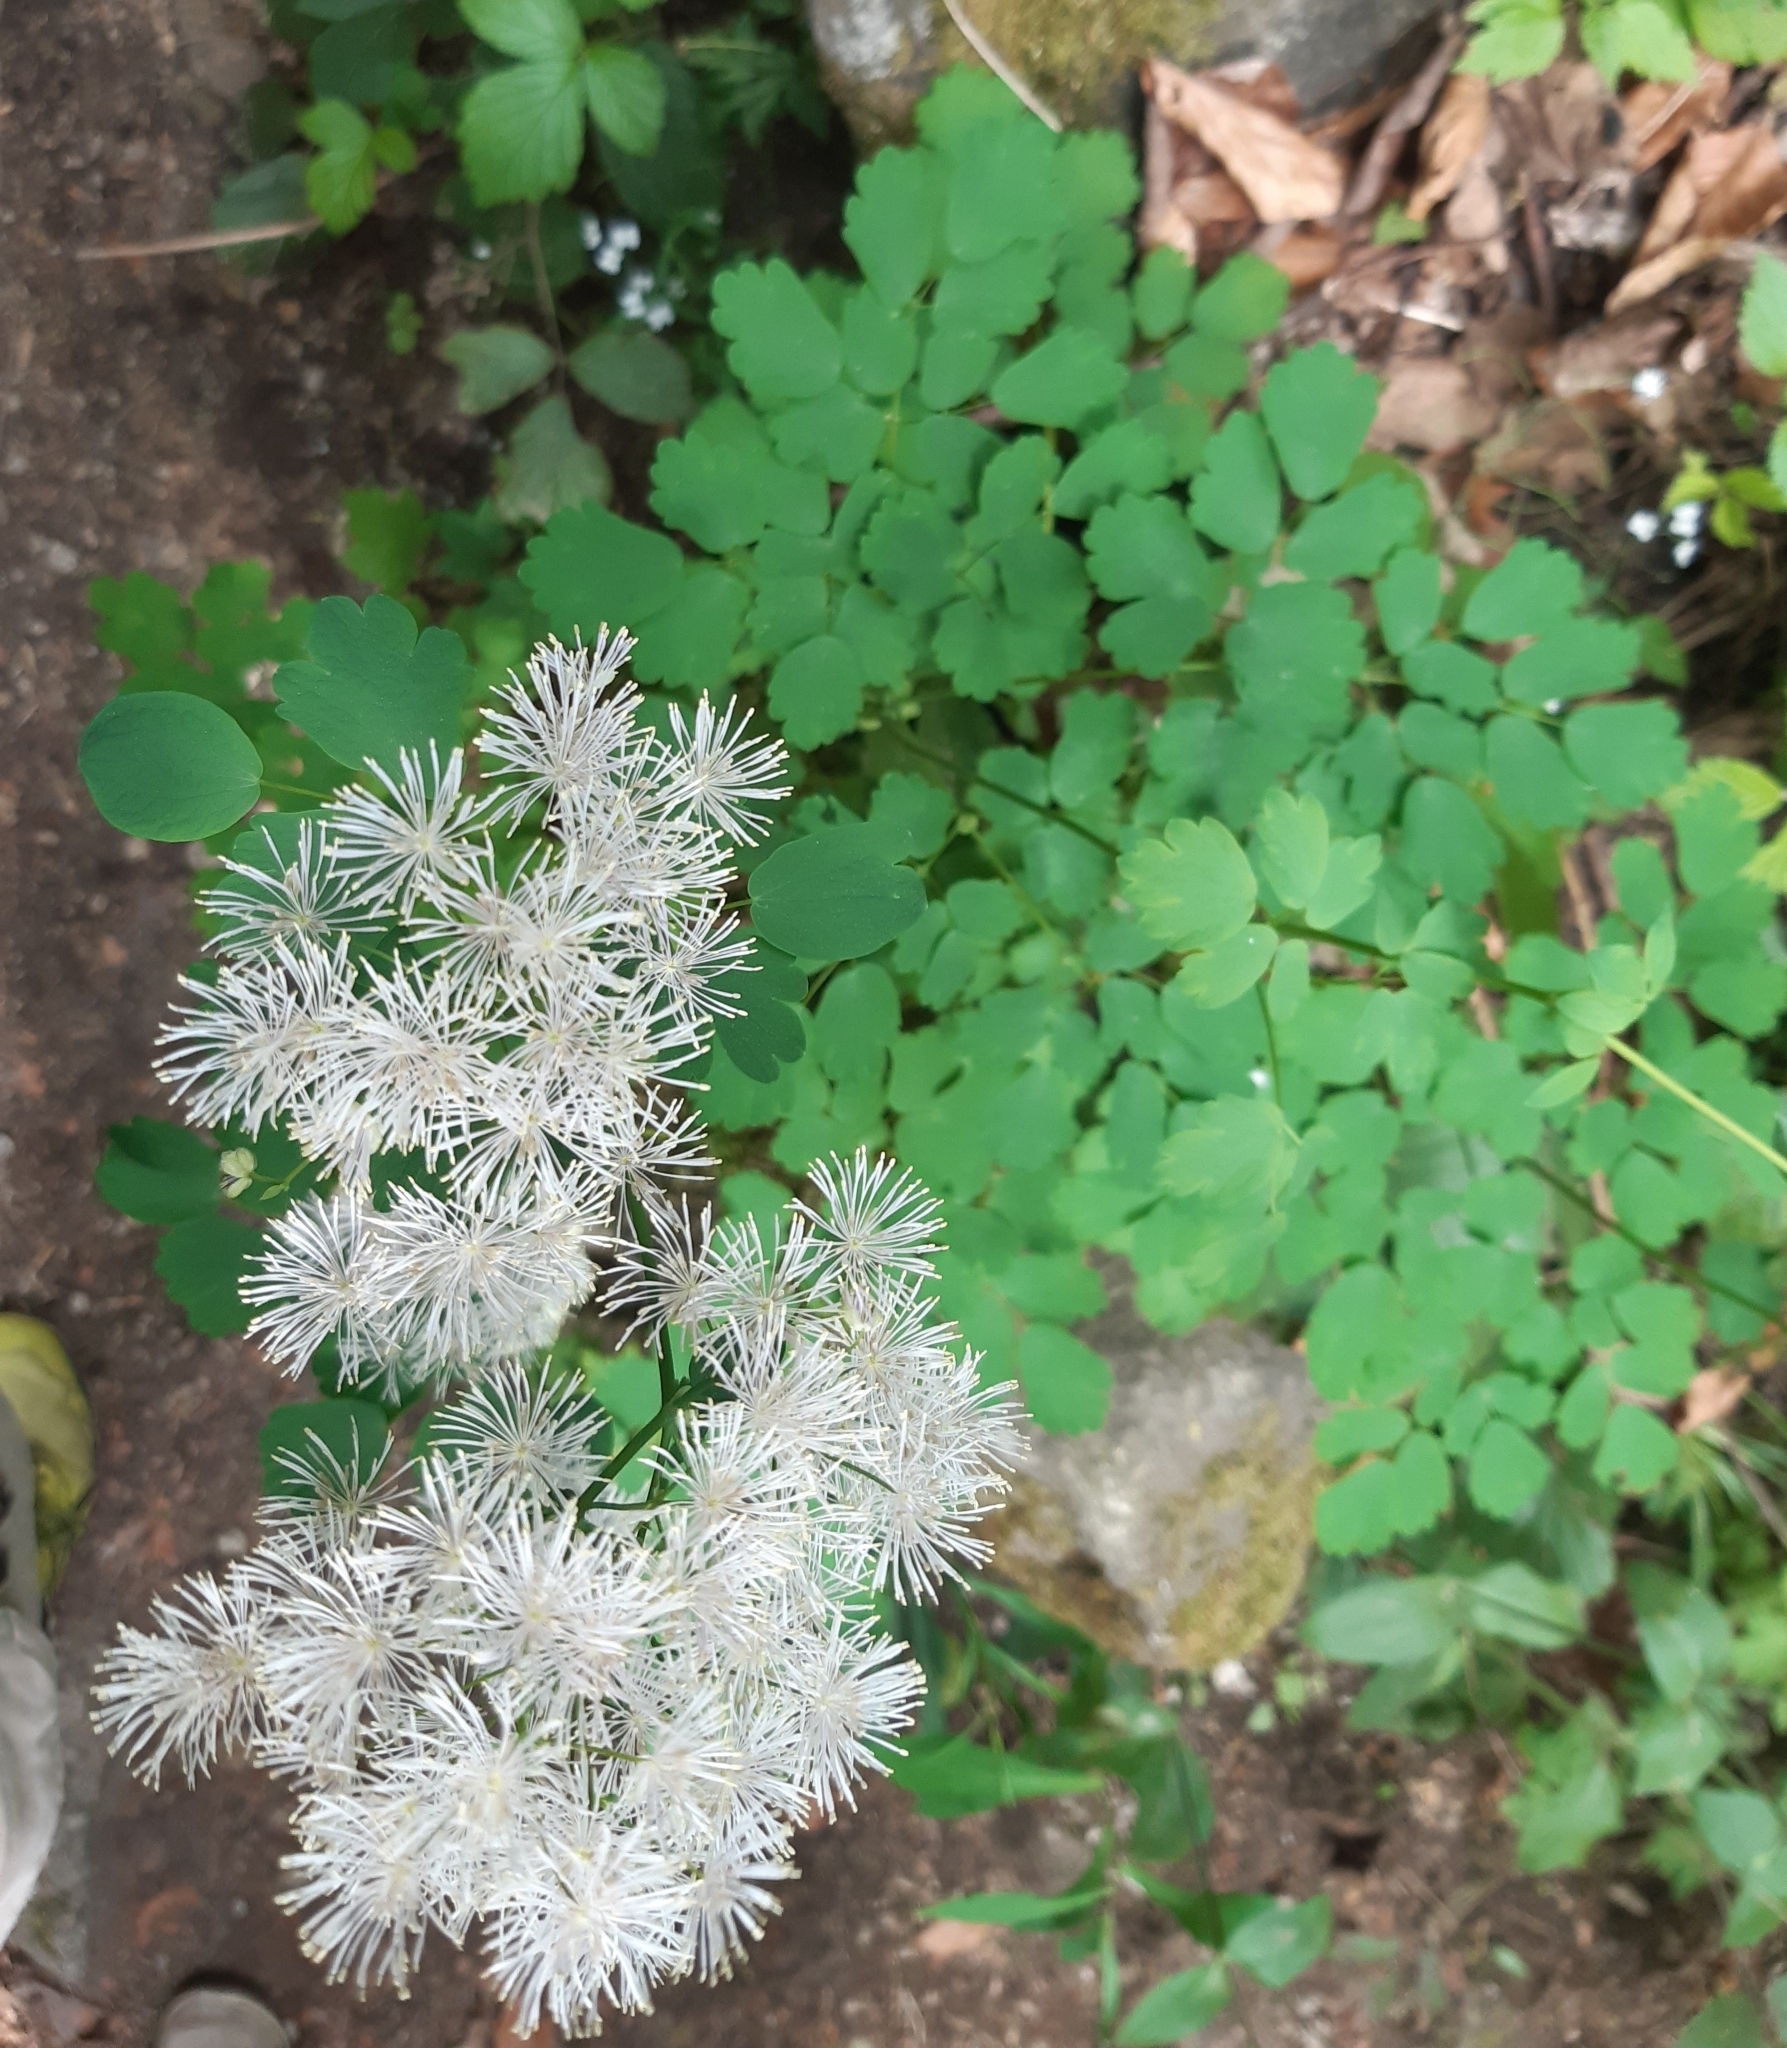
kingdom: Plantae
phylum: Tracheophyta
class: Magnoliopsida
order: Ranunculales
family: Ranunculaceae
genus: Thalictrum
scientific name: Thalictrum aquilegiifolium
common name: French meadow-rue
